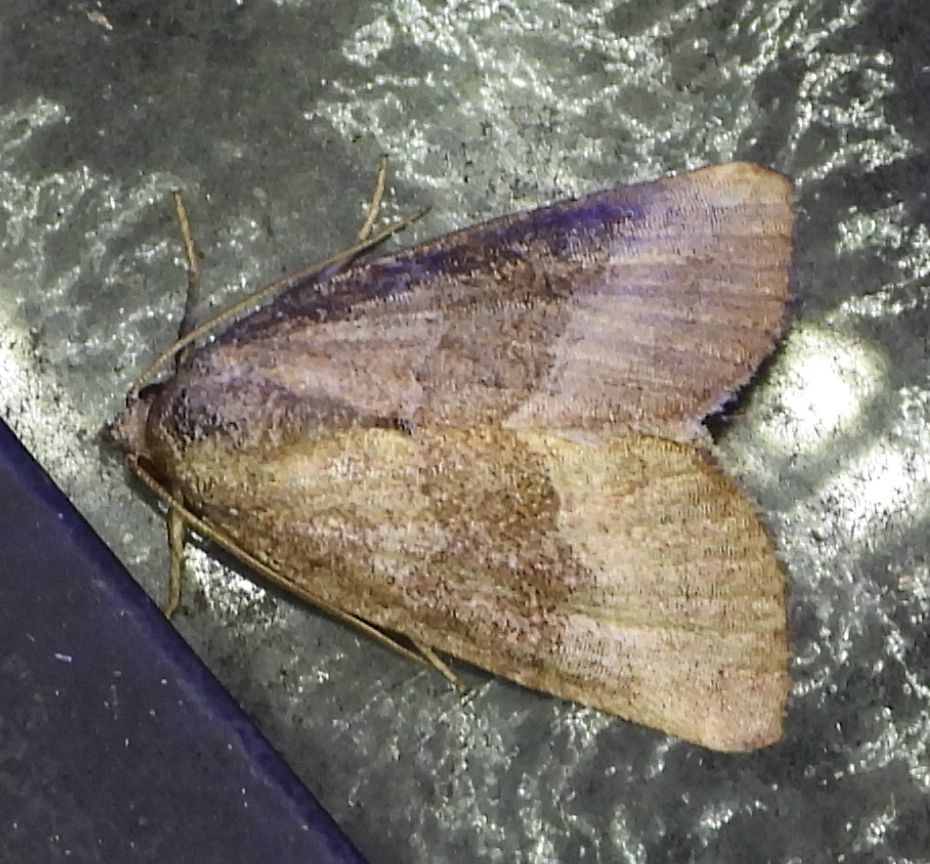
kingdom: Animalia
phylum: Arthropoda
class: Insecta
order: Lepidoptera
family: Noctuidae
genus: Ogdoconta
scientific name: Ogdoconta cinereola
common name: Common pinkband
